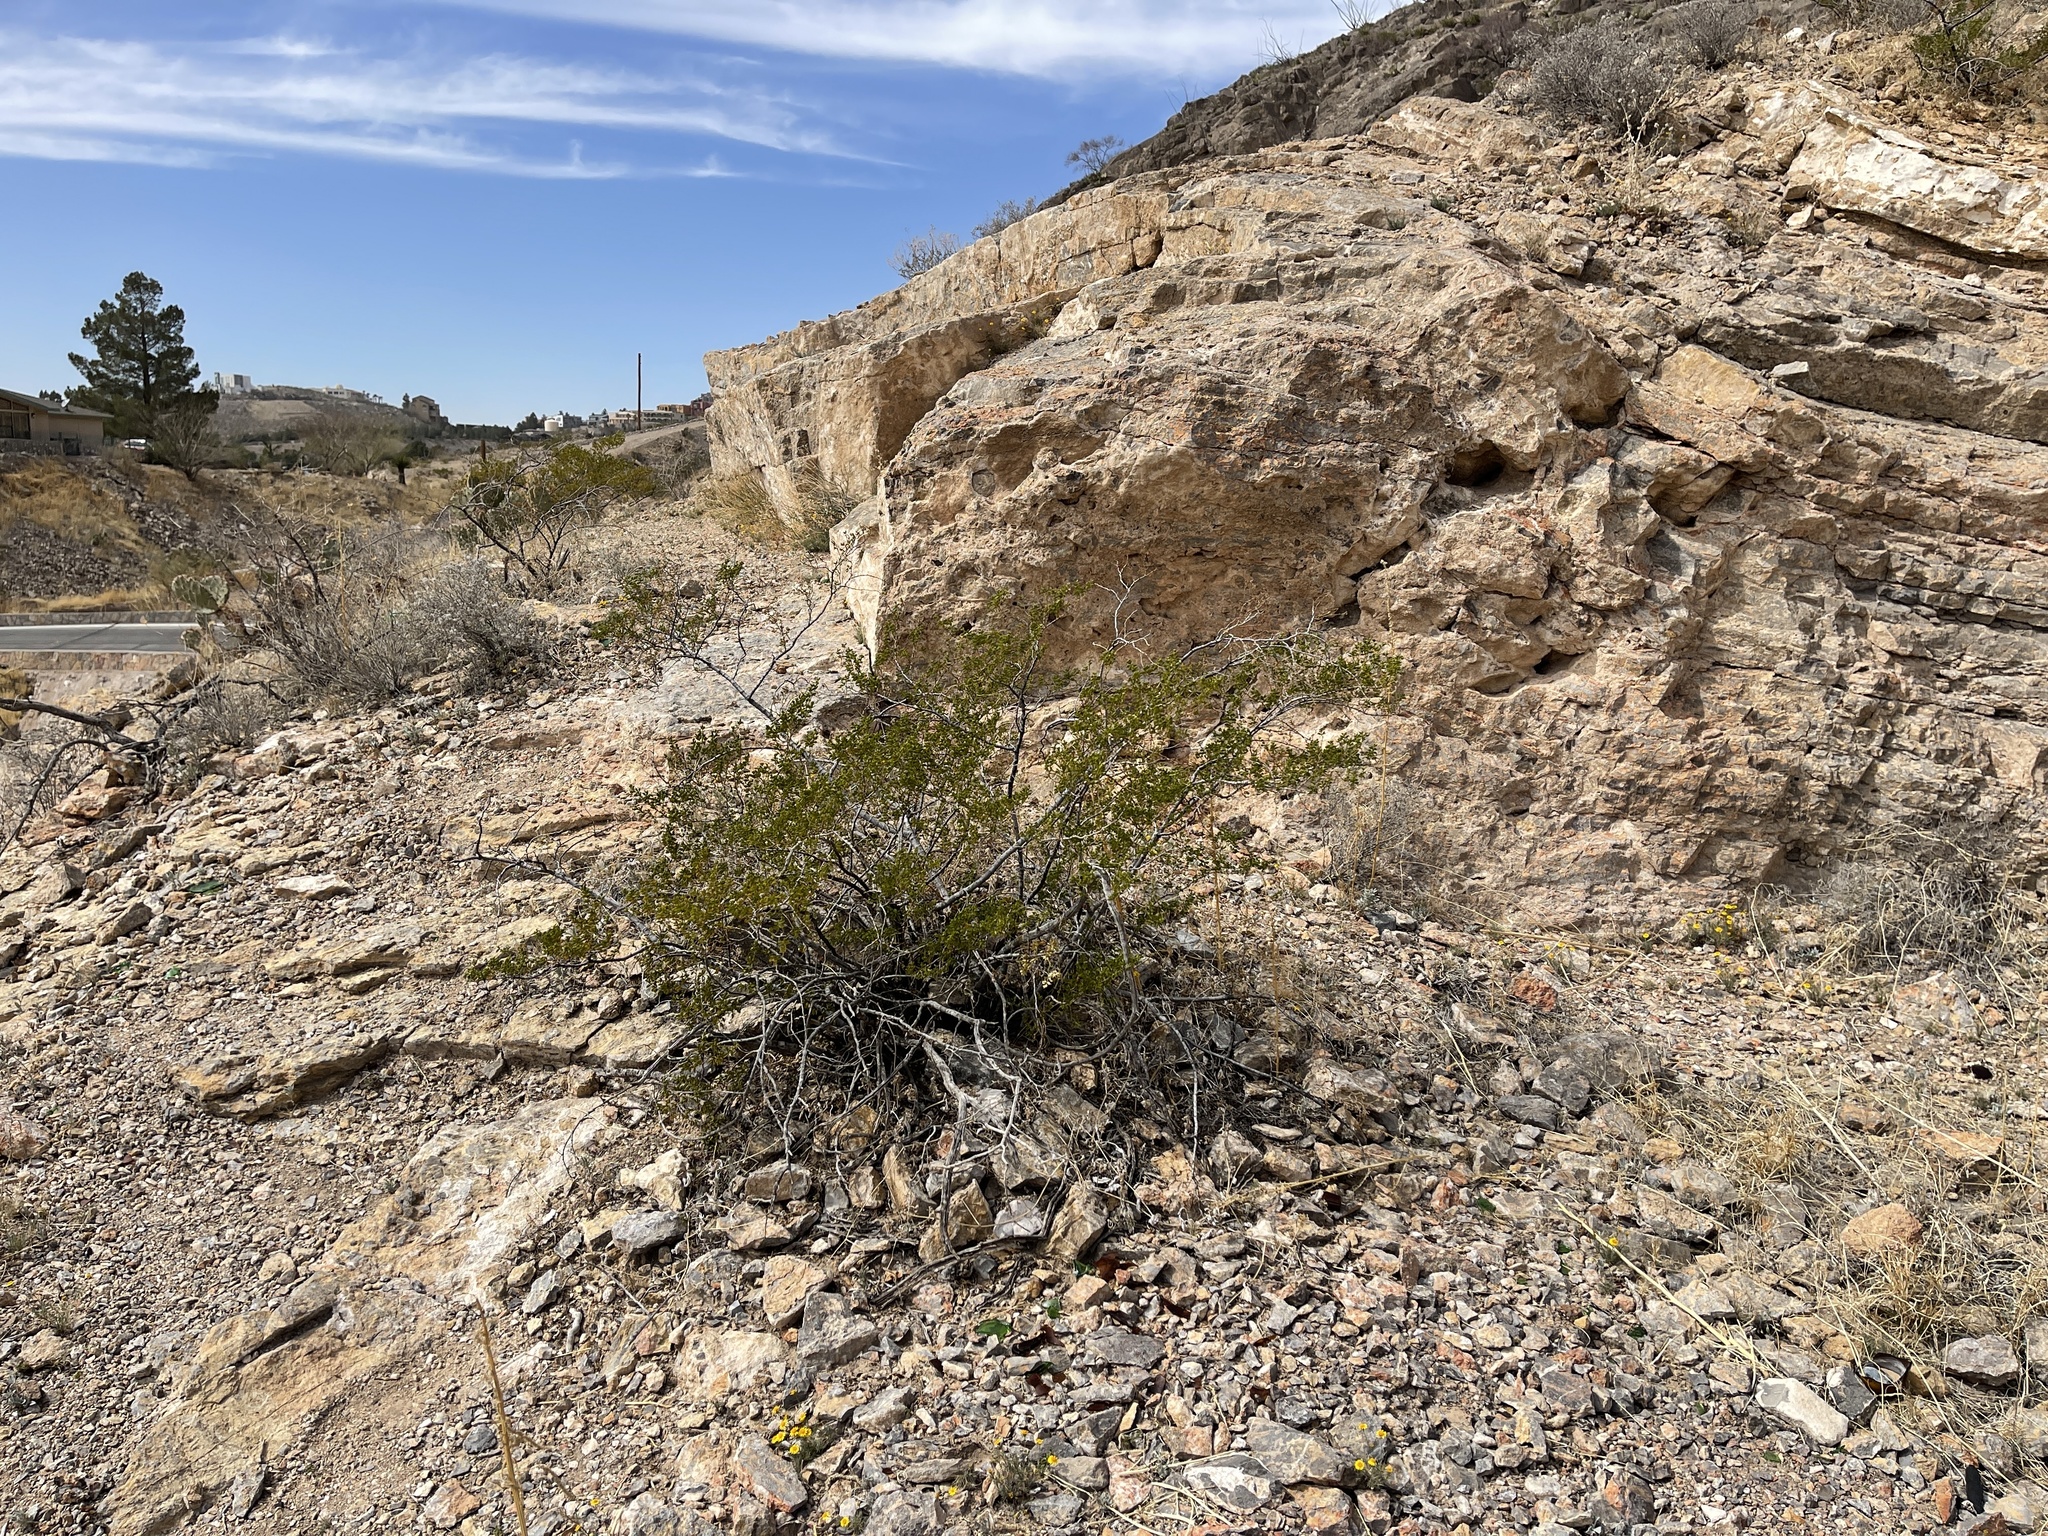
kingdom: Plantae
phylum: Tracheophyta
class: Magnoliopsida
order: Zygophyllales
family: Zygophyllaceae
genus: Larrea
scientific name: Larrea tridentata
